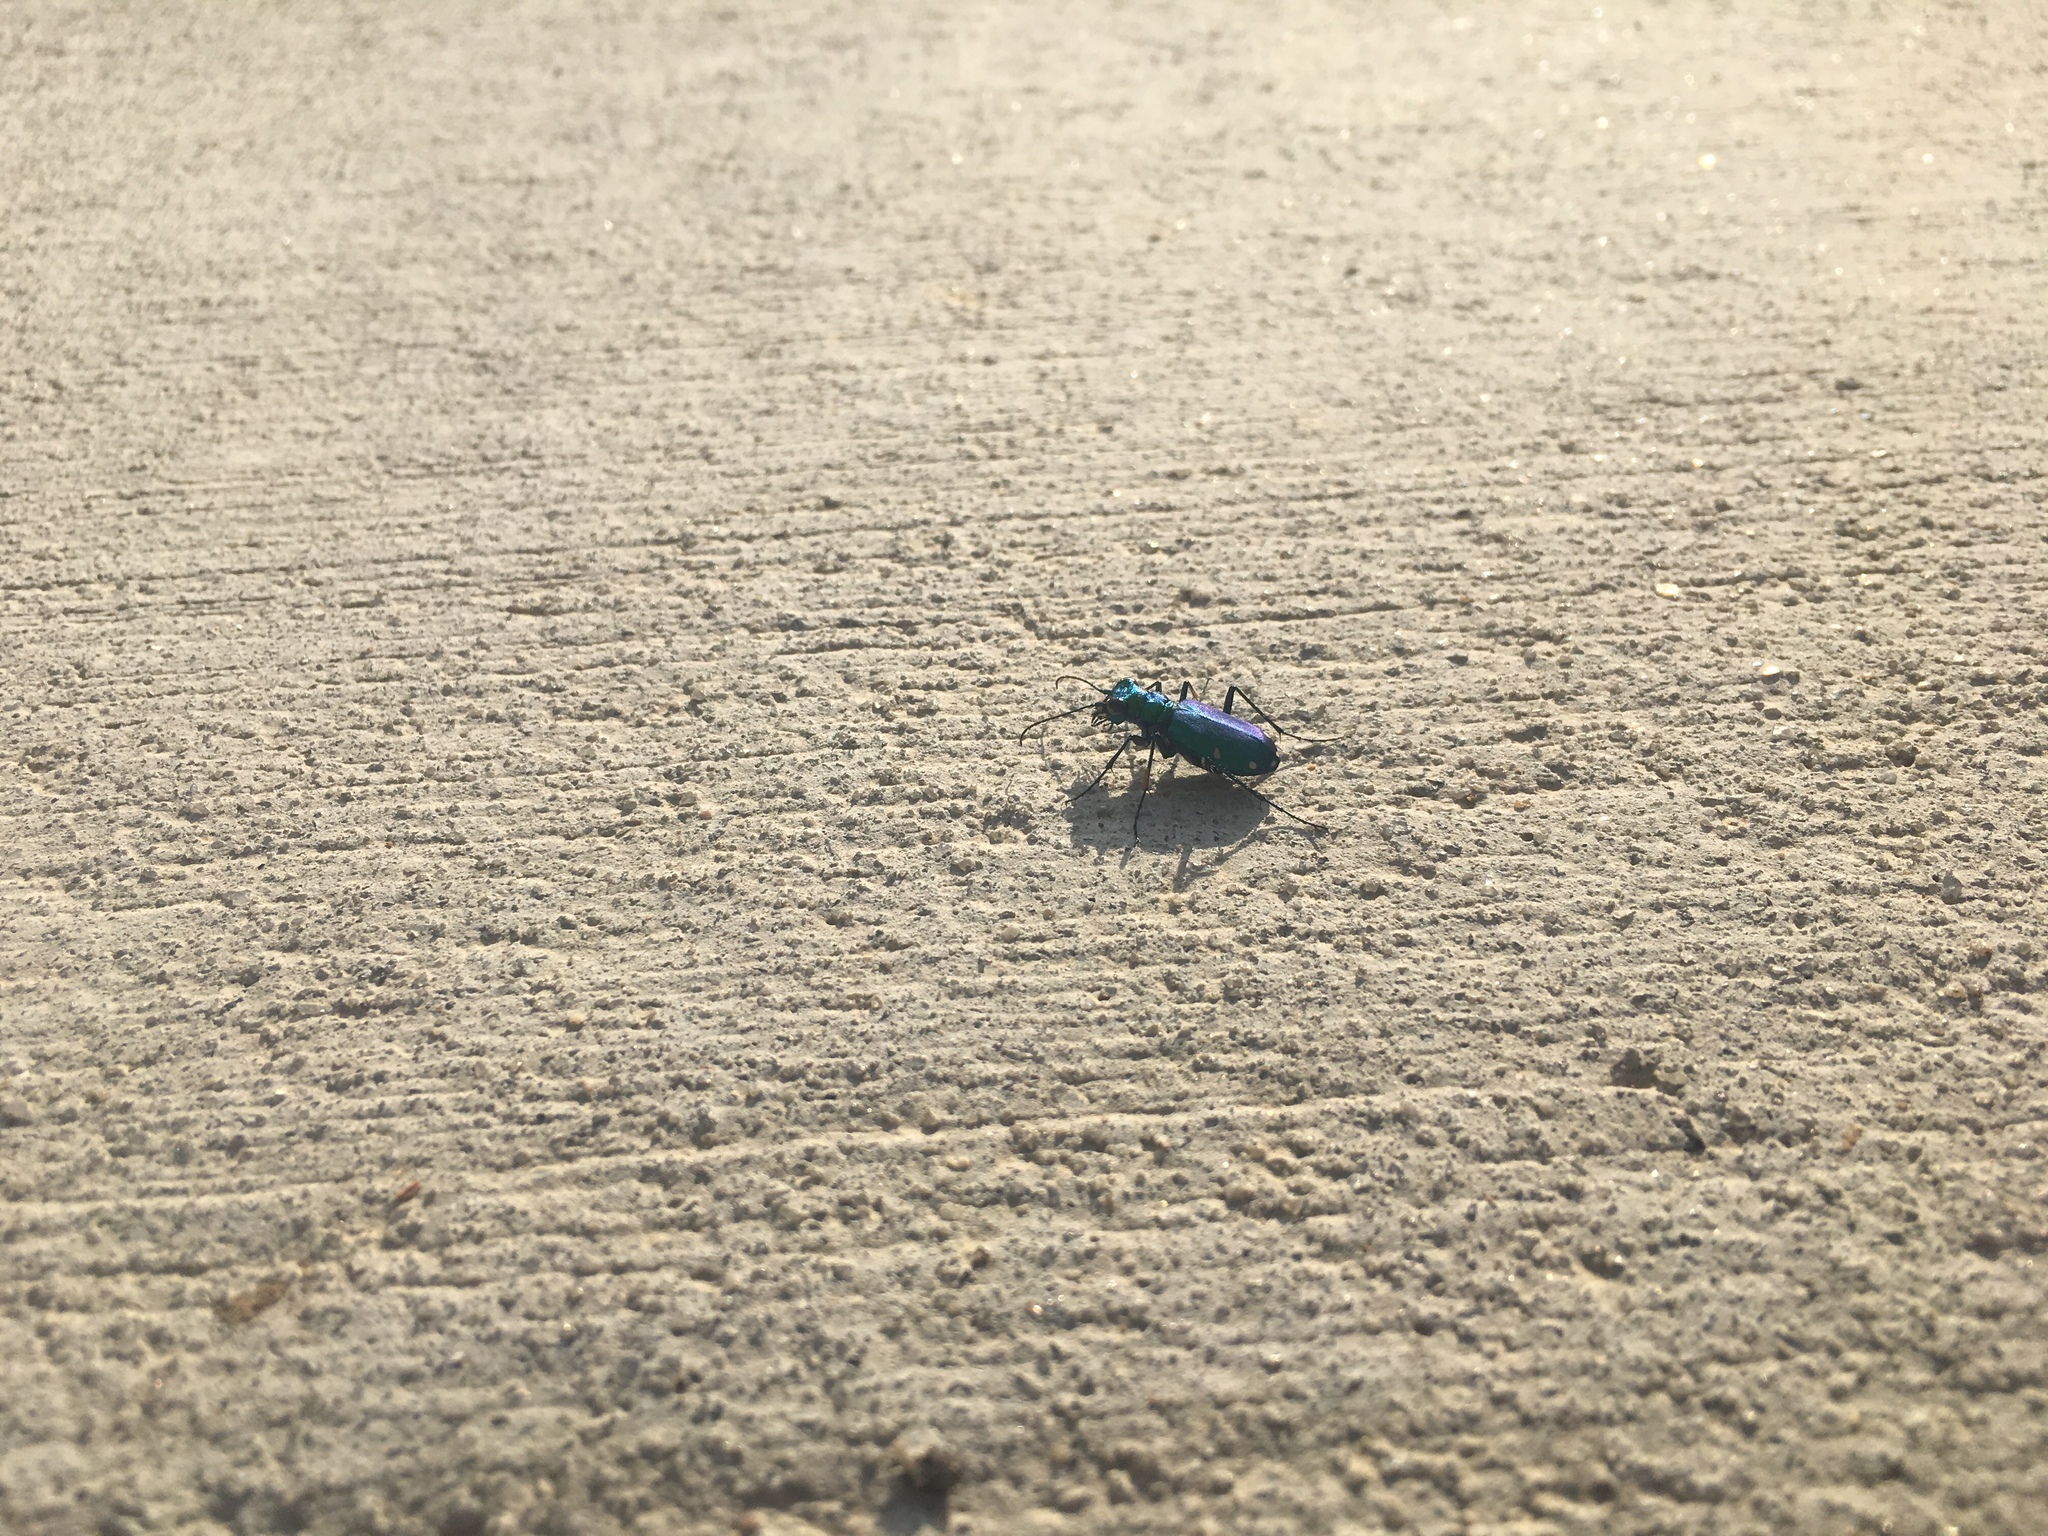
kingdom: Animalia
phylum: Arthropoda
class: Insecta
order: Coleoptera
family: Carabidae
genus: Cicindela
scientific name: Cicindela sexguttata
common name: Six-spotted tiger beetle
